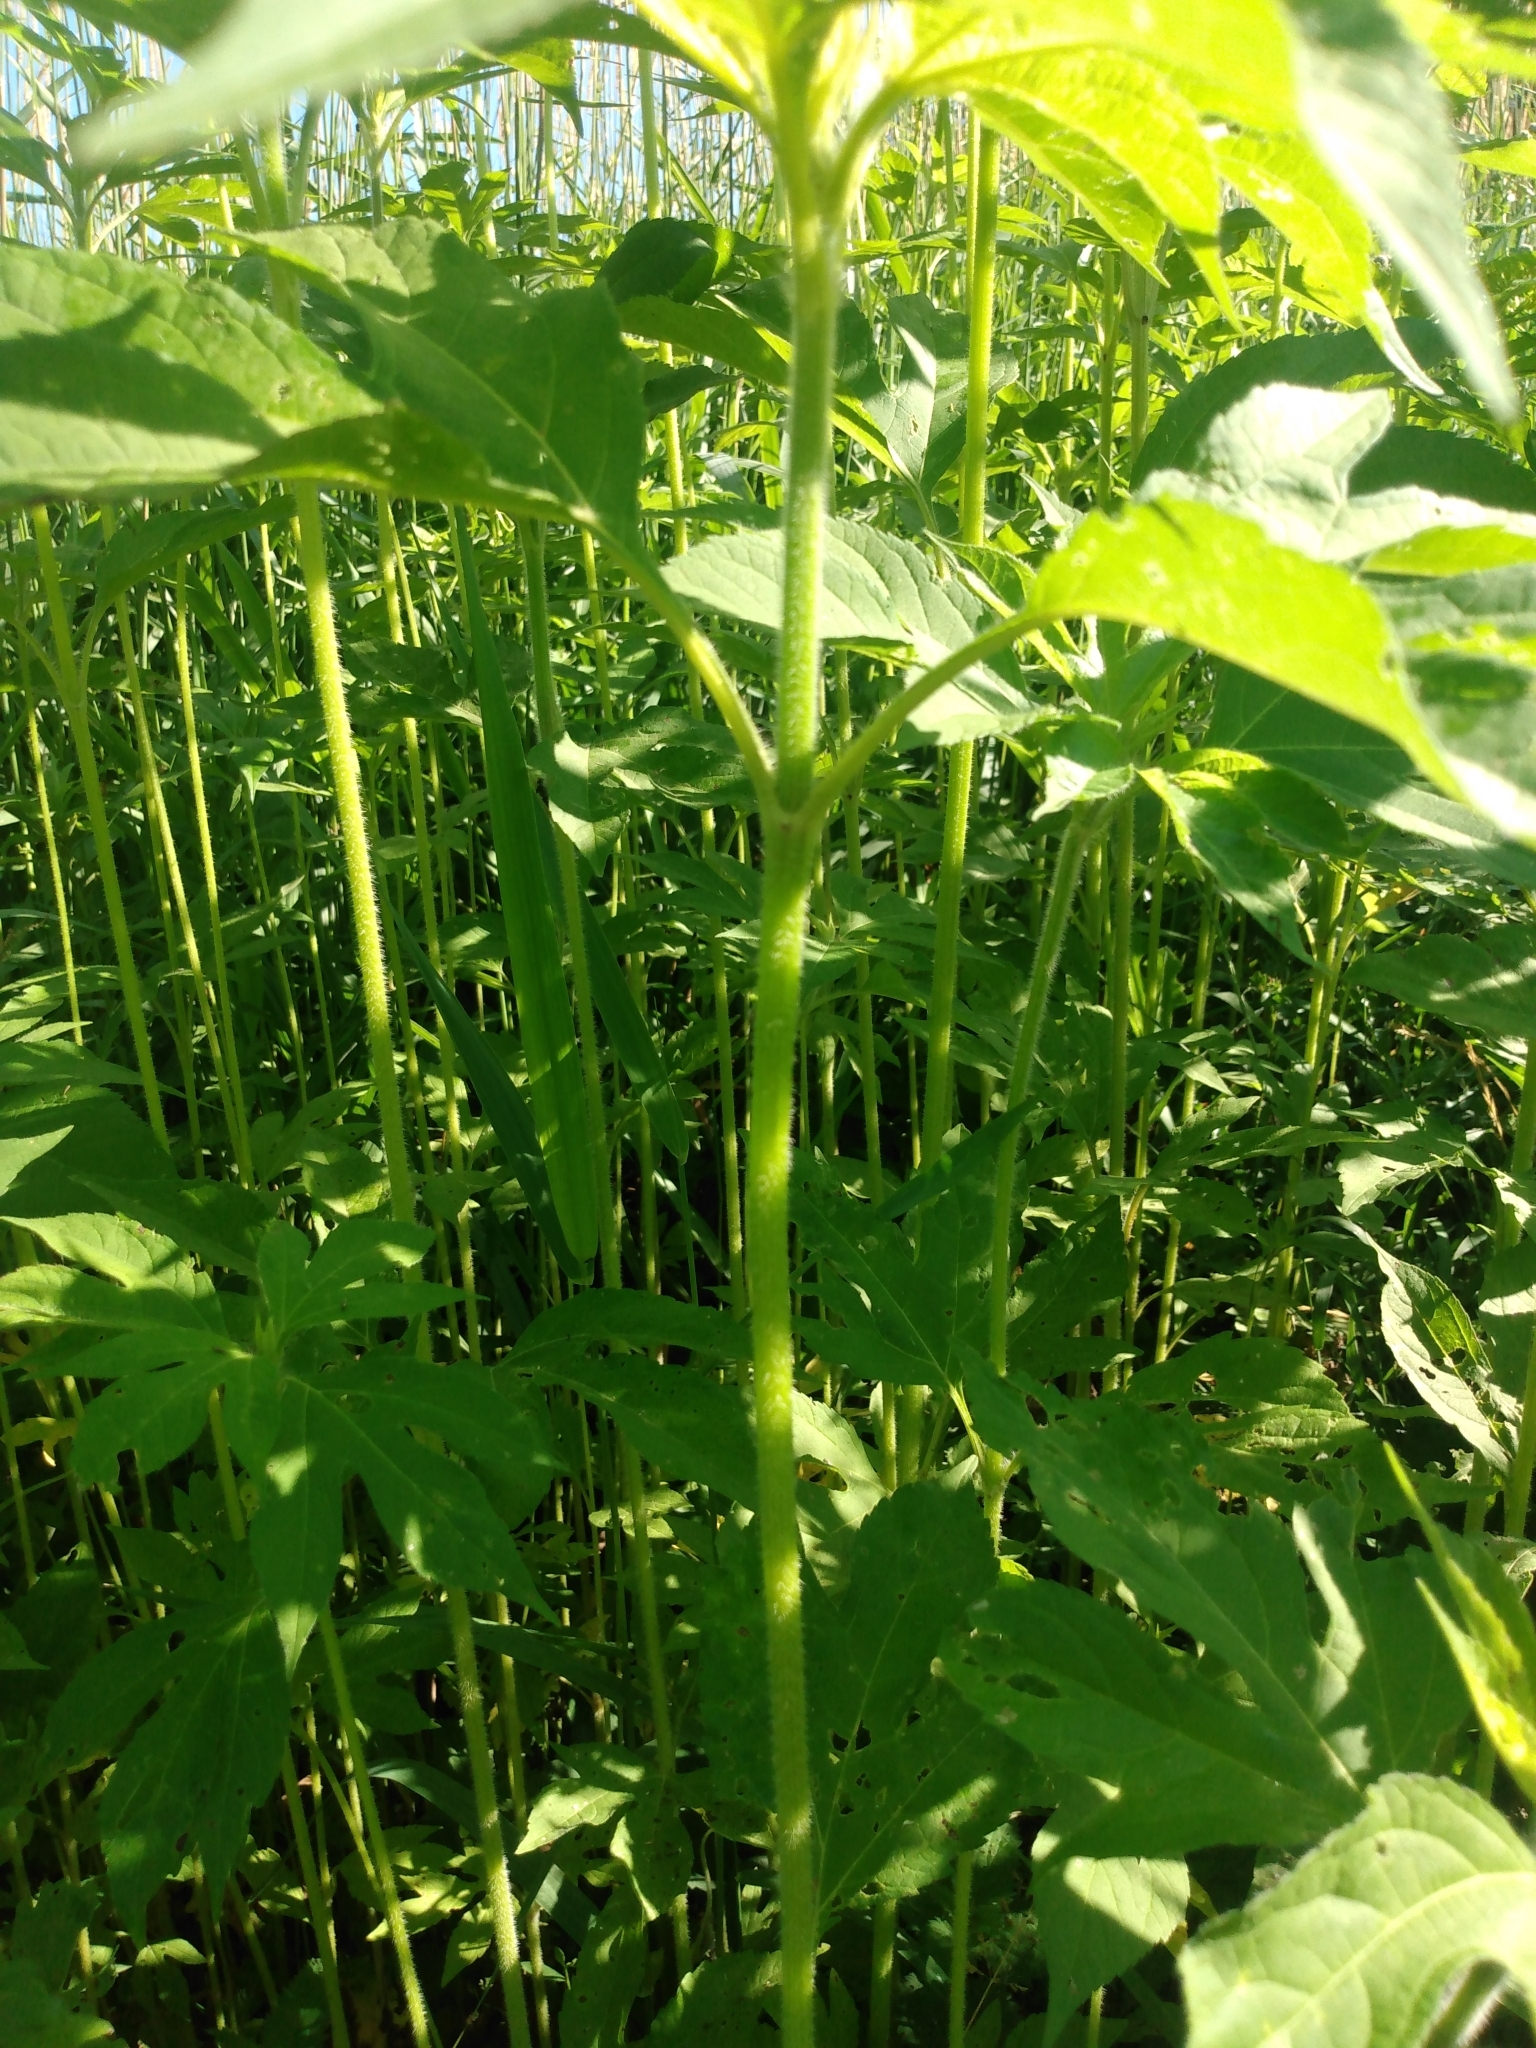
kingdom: Plantae
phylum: Tracheophyta
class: Magnoliopsida
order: Asterales
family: Asteraceae
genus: Ambrosia
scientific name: Ambrosia trifida
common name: Giant ragweed
